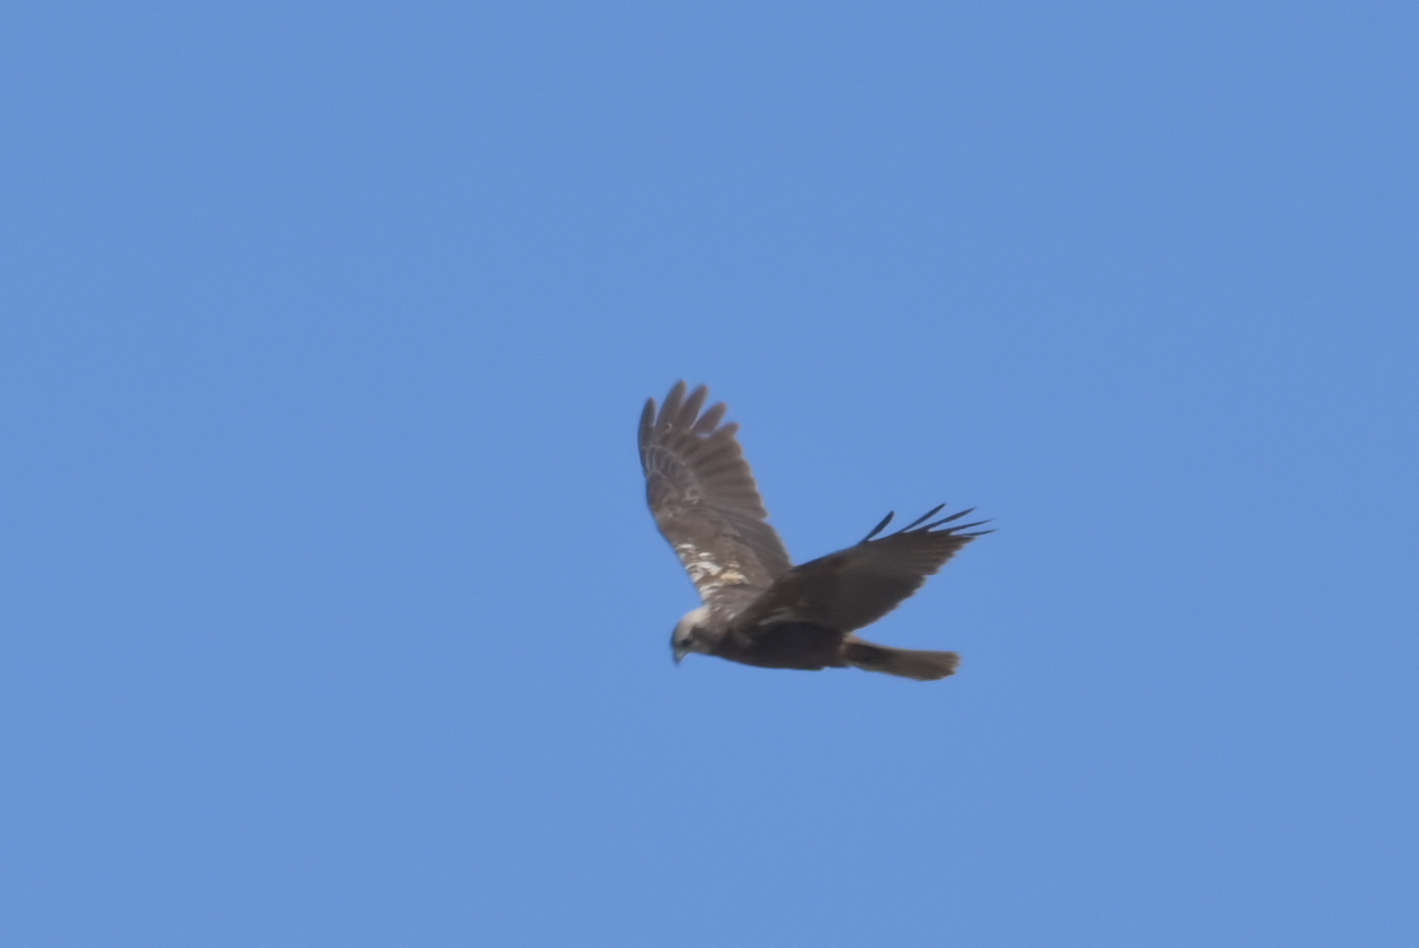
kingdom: Animalia
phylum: Chordata
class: Aves
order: Accipitriformes
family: Accipitridae
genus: Circus
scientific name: Circus aeruginosus
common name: Western marsh harrier
